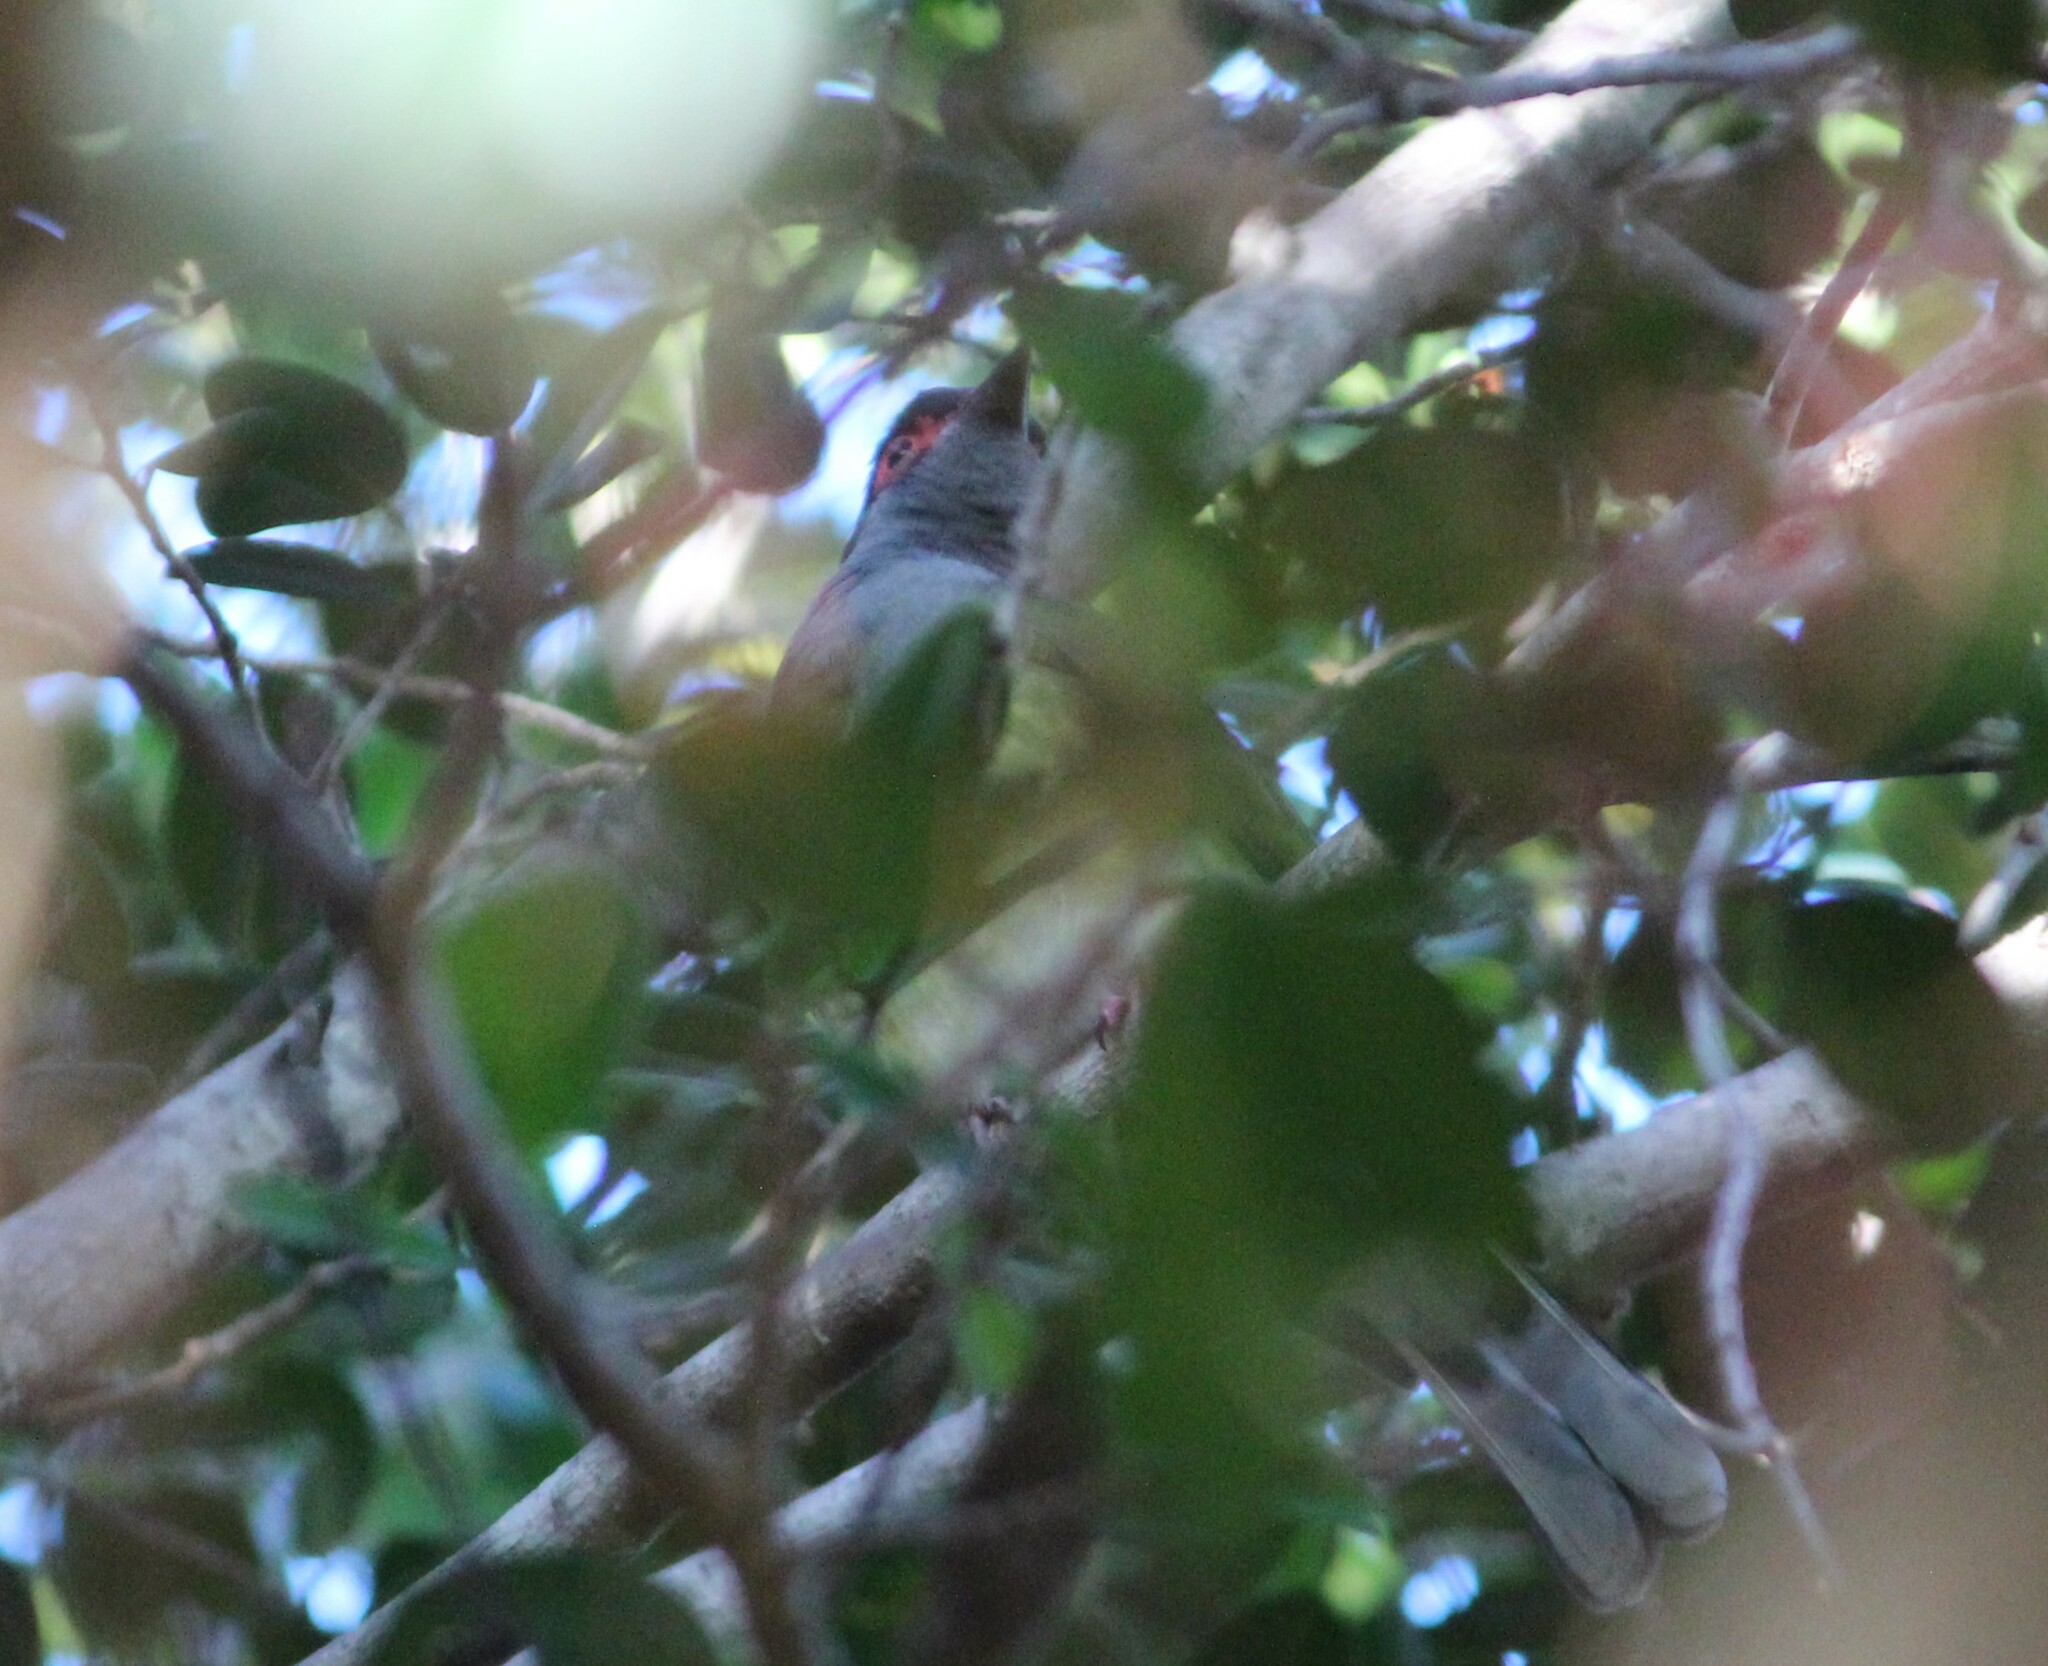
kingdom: Animalia
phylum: Chordata
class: Aves
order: Passeriformes
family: Oriolidae
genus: Sphecotheres
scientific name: Sphecotheres vieilloti
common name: Australasian figbird
